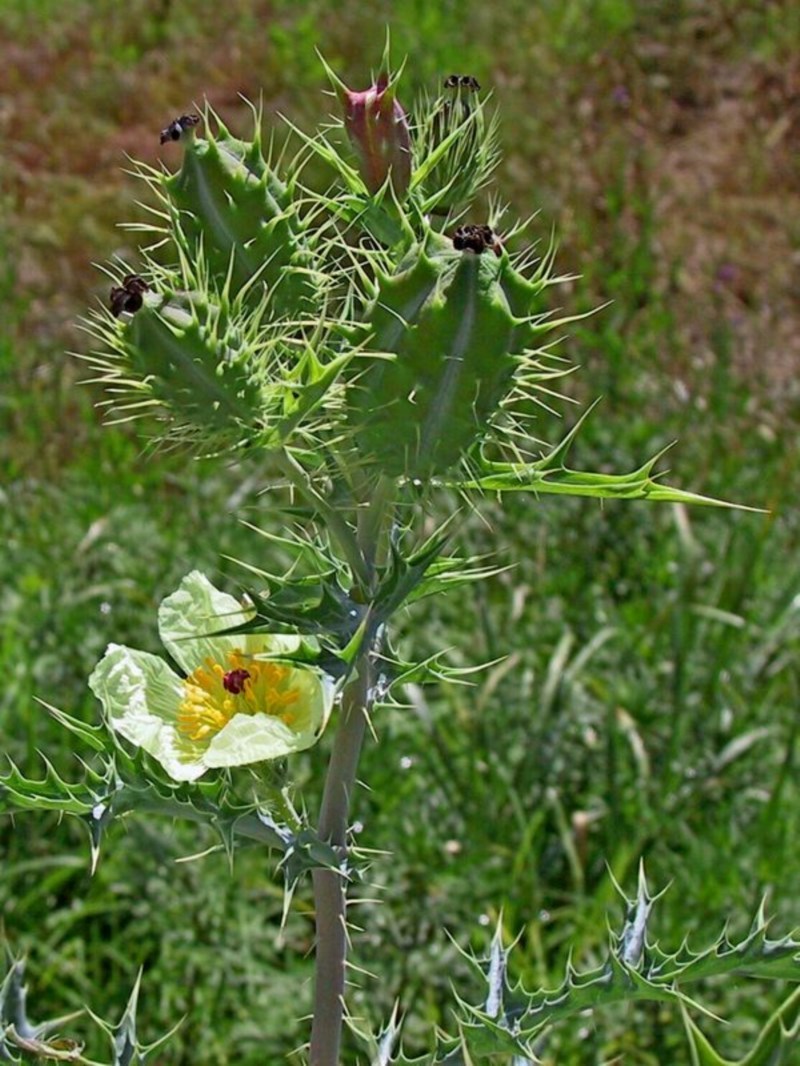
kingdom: Plantae
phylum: Tracheophyta
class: Magnoliopsida
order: Ranunculales
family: Papaveraceae
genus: Argemone
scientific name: Argemone ochroleuca
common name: White-flower mexican-poppy
